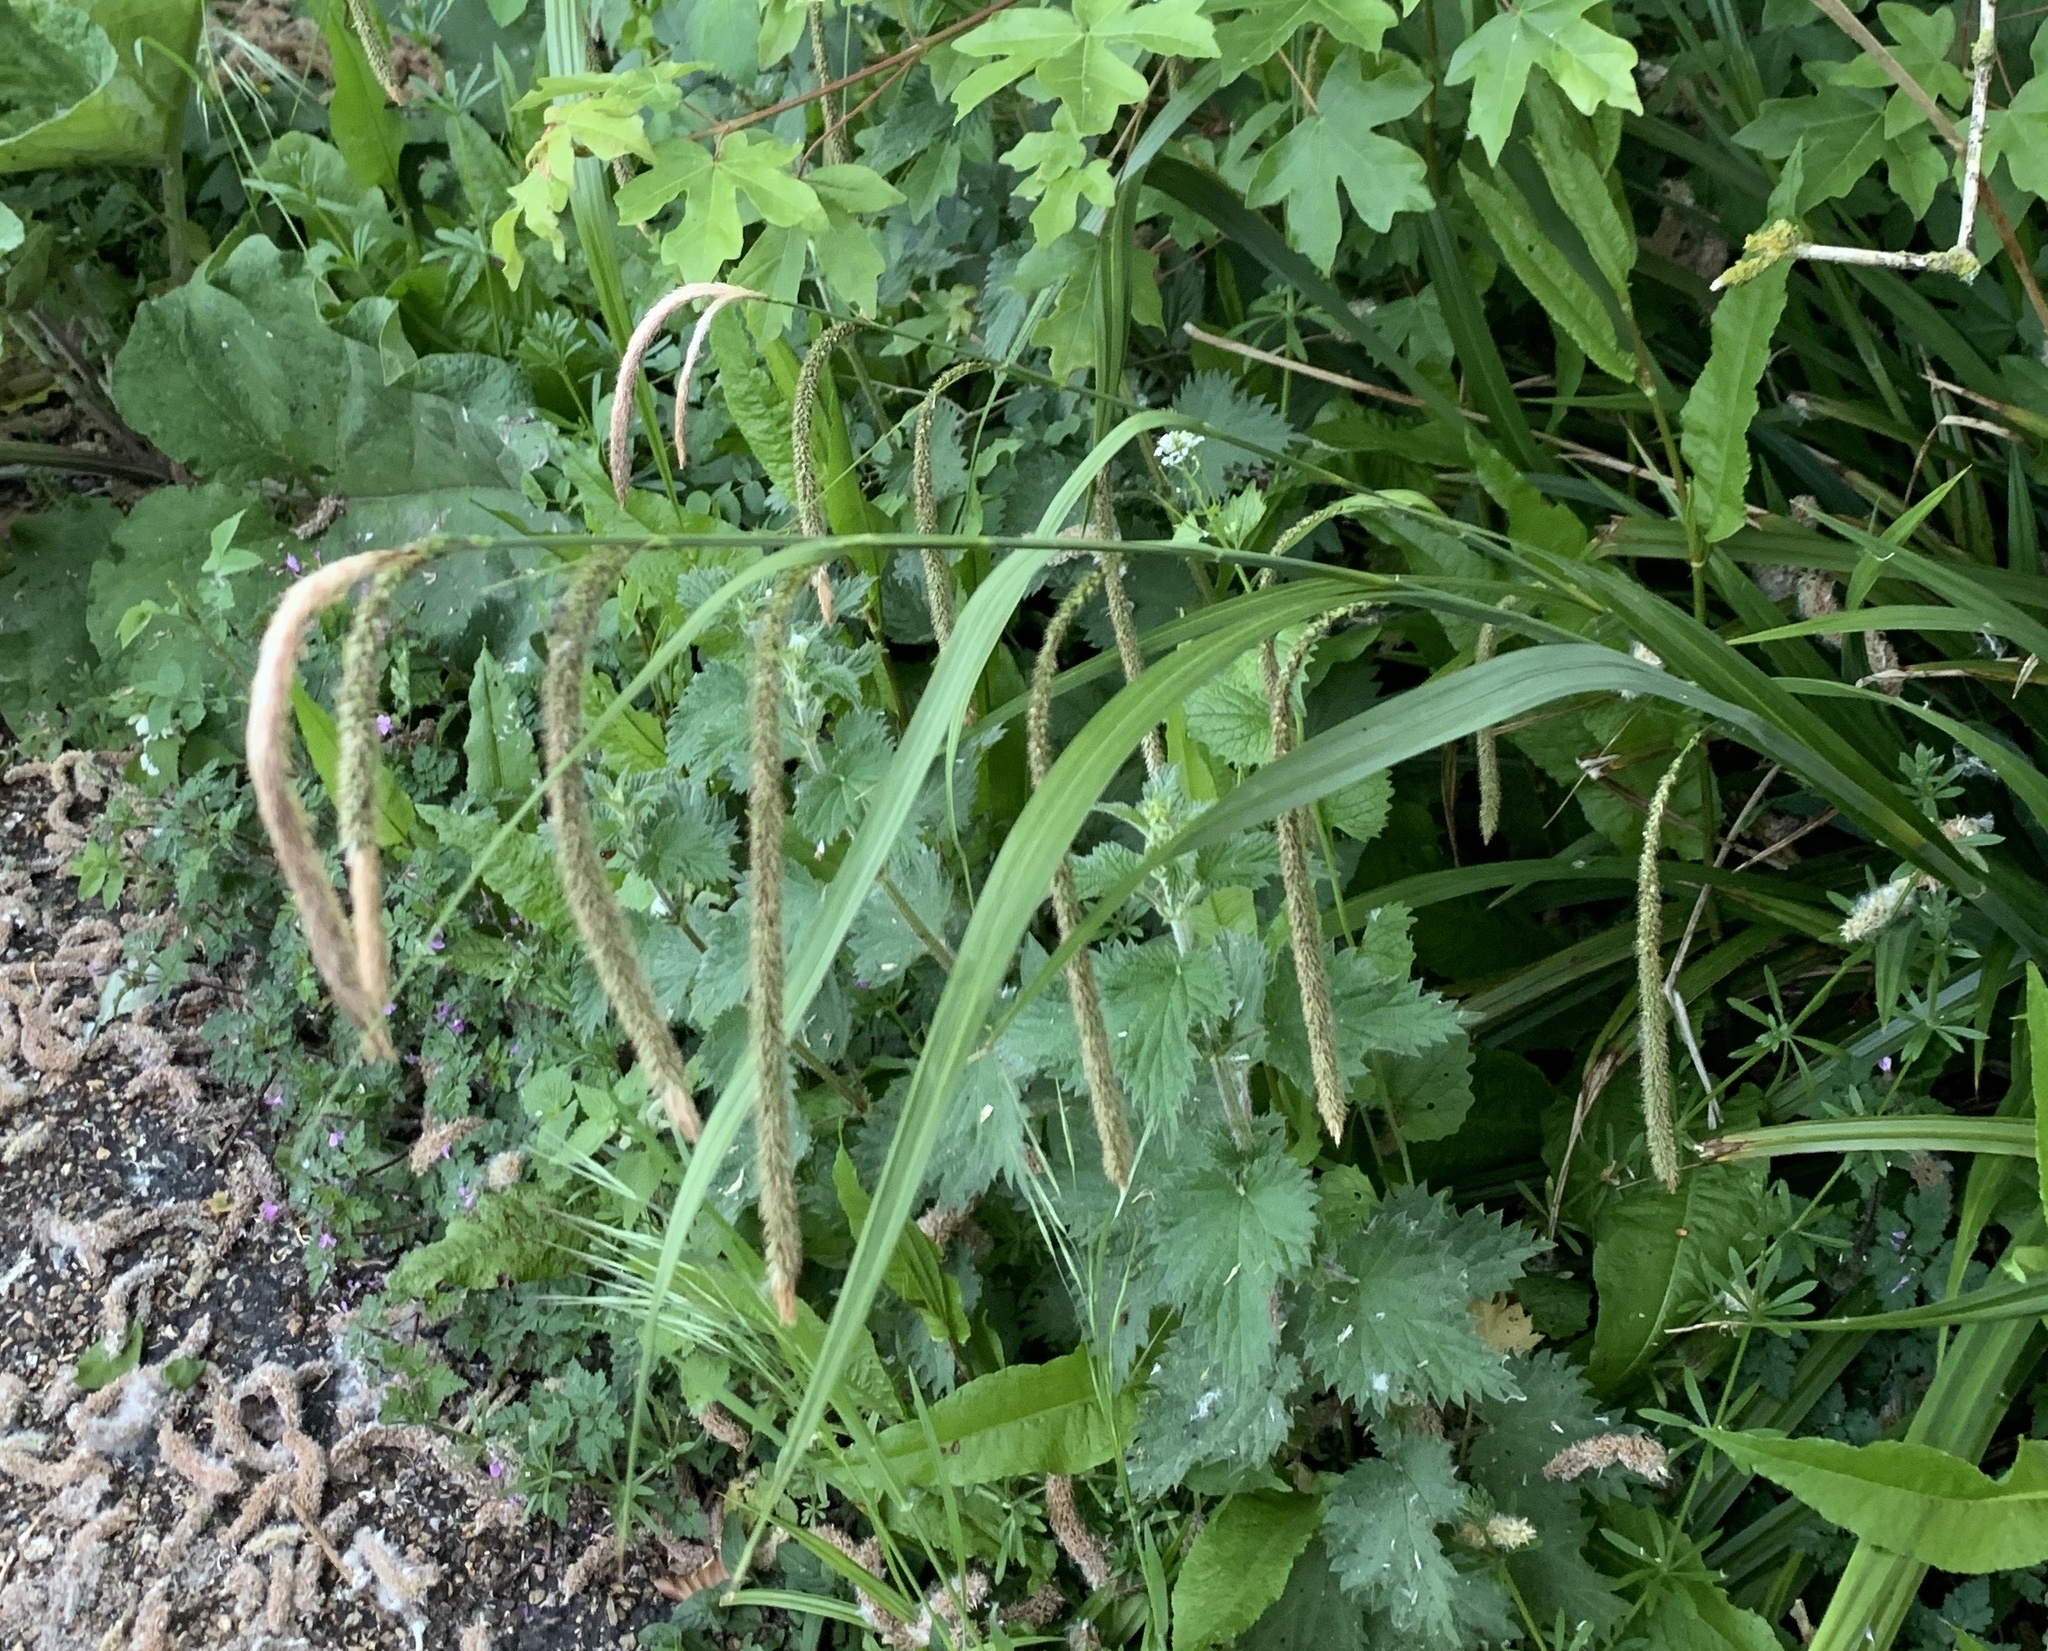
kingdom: Plantae
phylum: Tracheophyta
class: Liliopsida
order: Poales
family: Cyperaceae
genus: Carex
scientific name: Carex pendula
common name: Pendulous sedge
